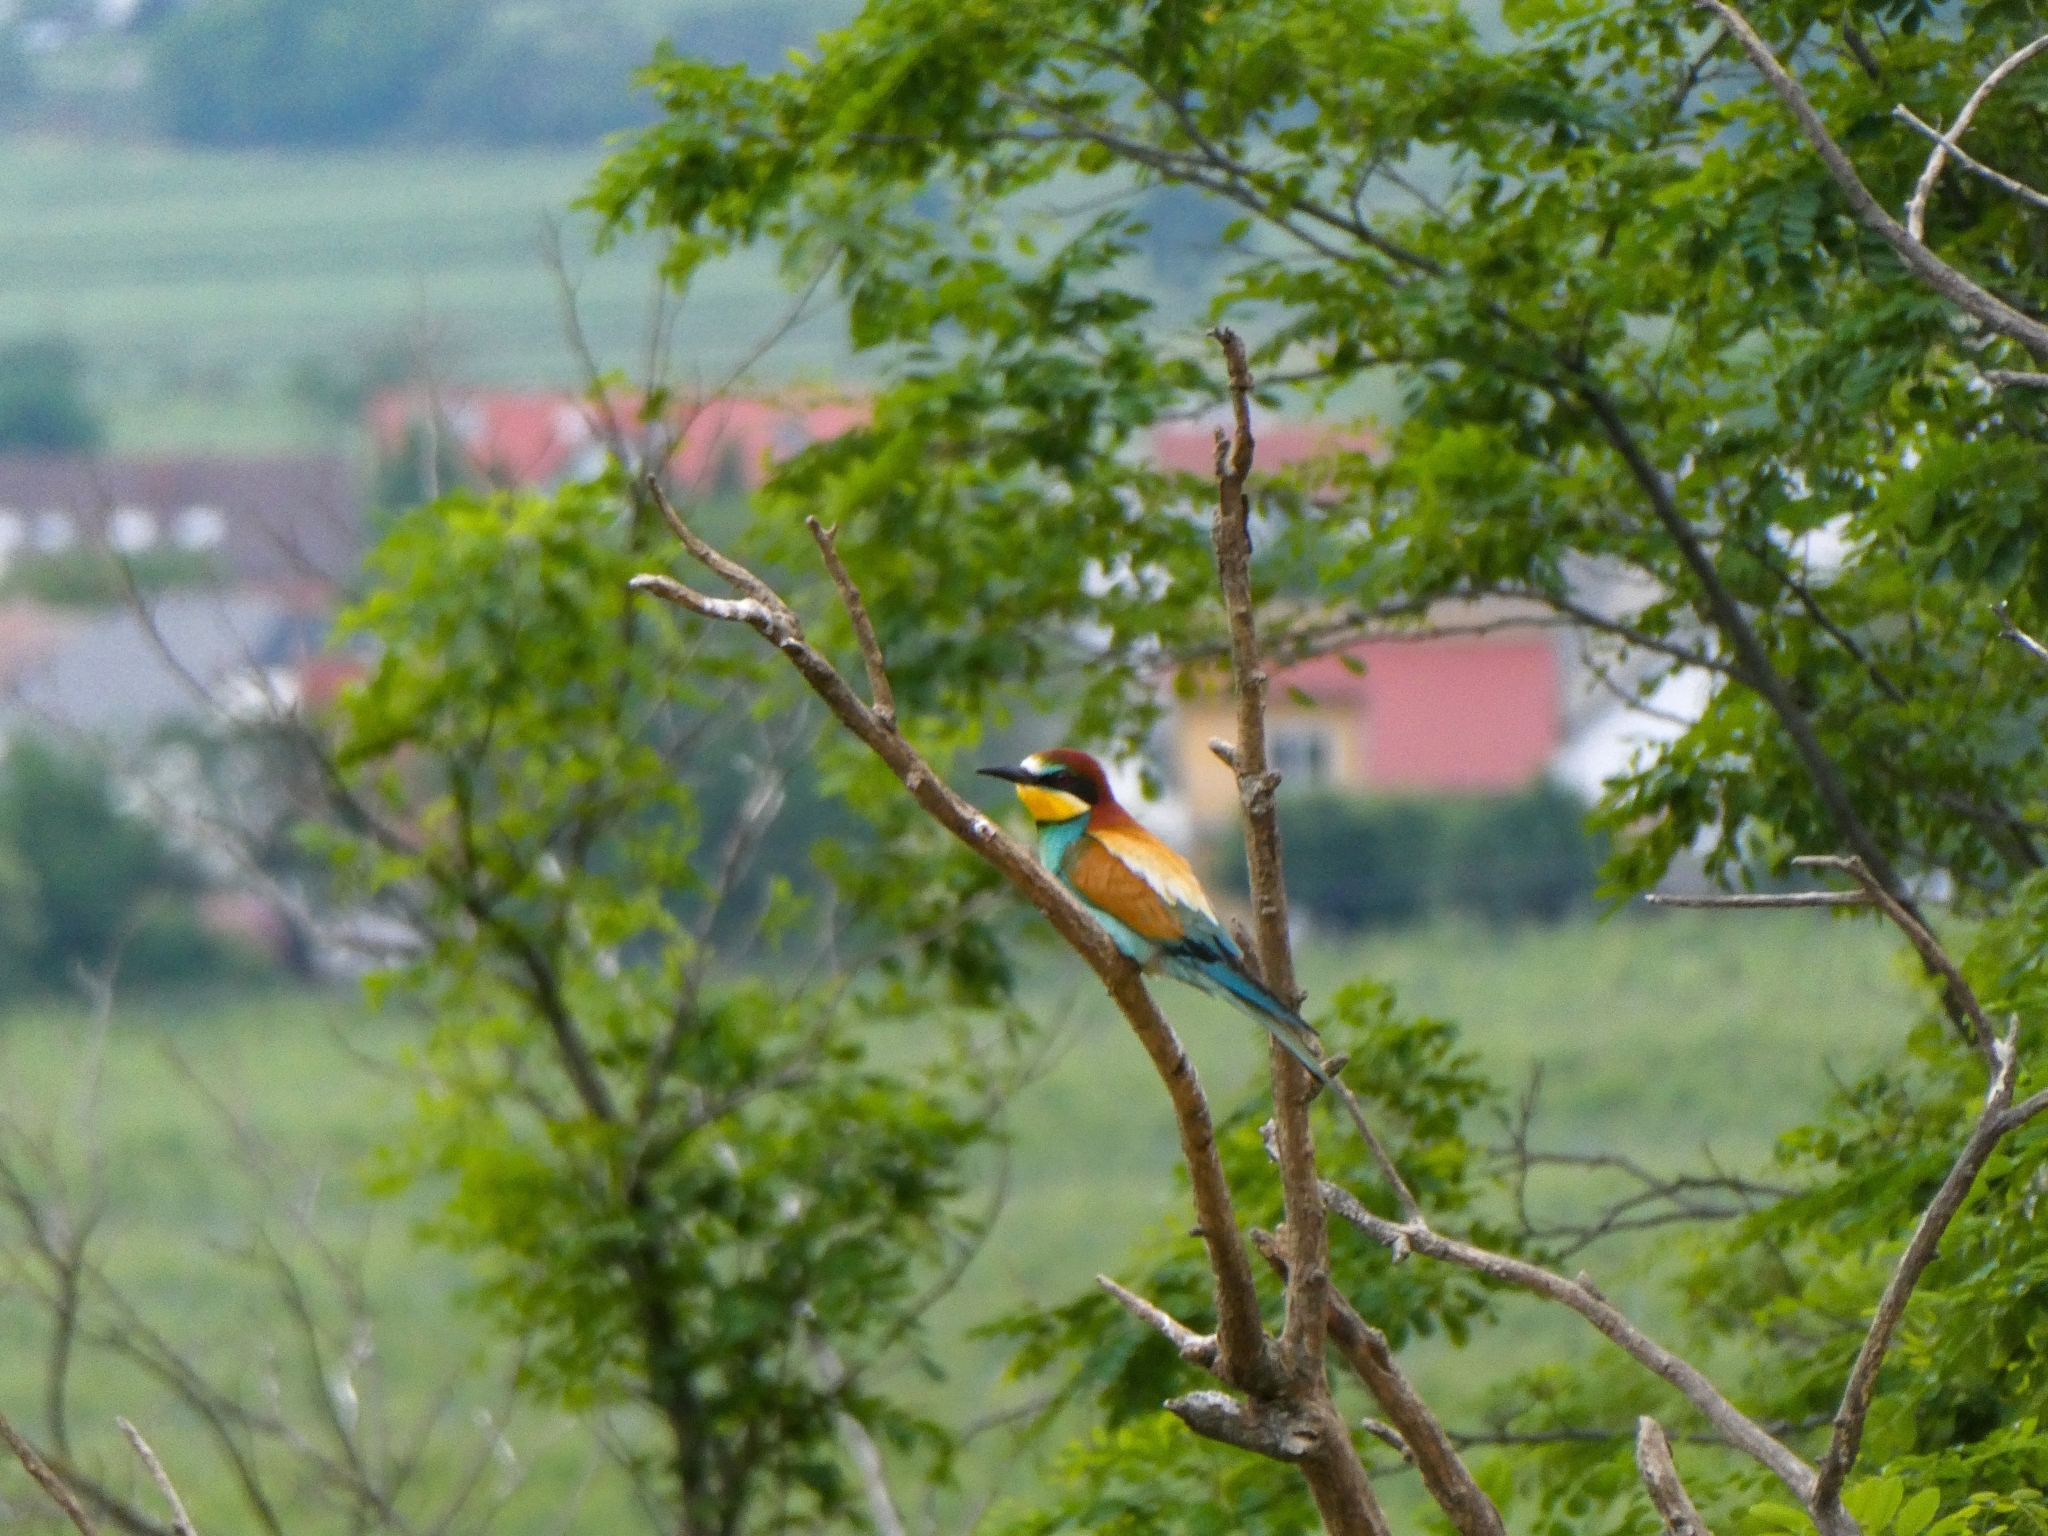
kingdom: Animalia
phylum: Chordata
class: Aves
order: Coraciiformes
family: Meropidae
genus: Merops
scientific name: Merops apiaster
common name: European bee-eater
